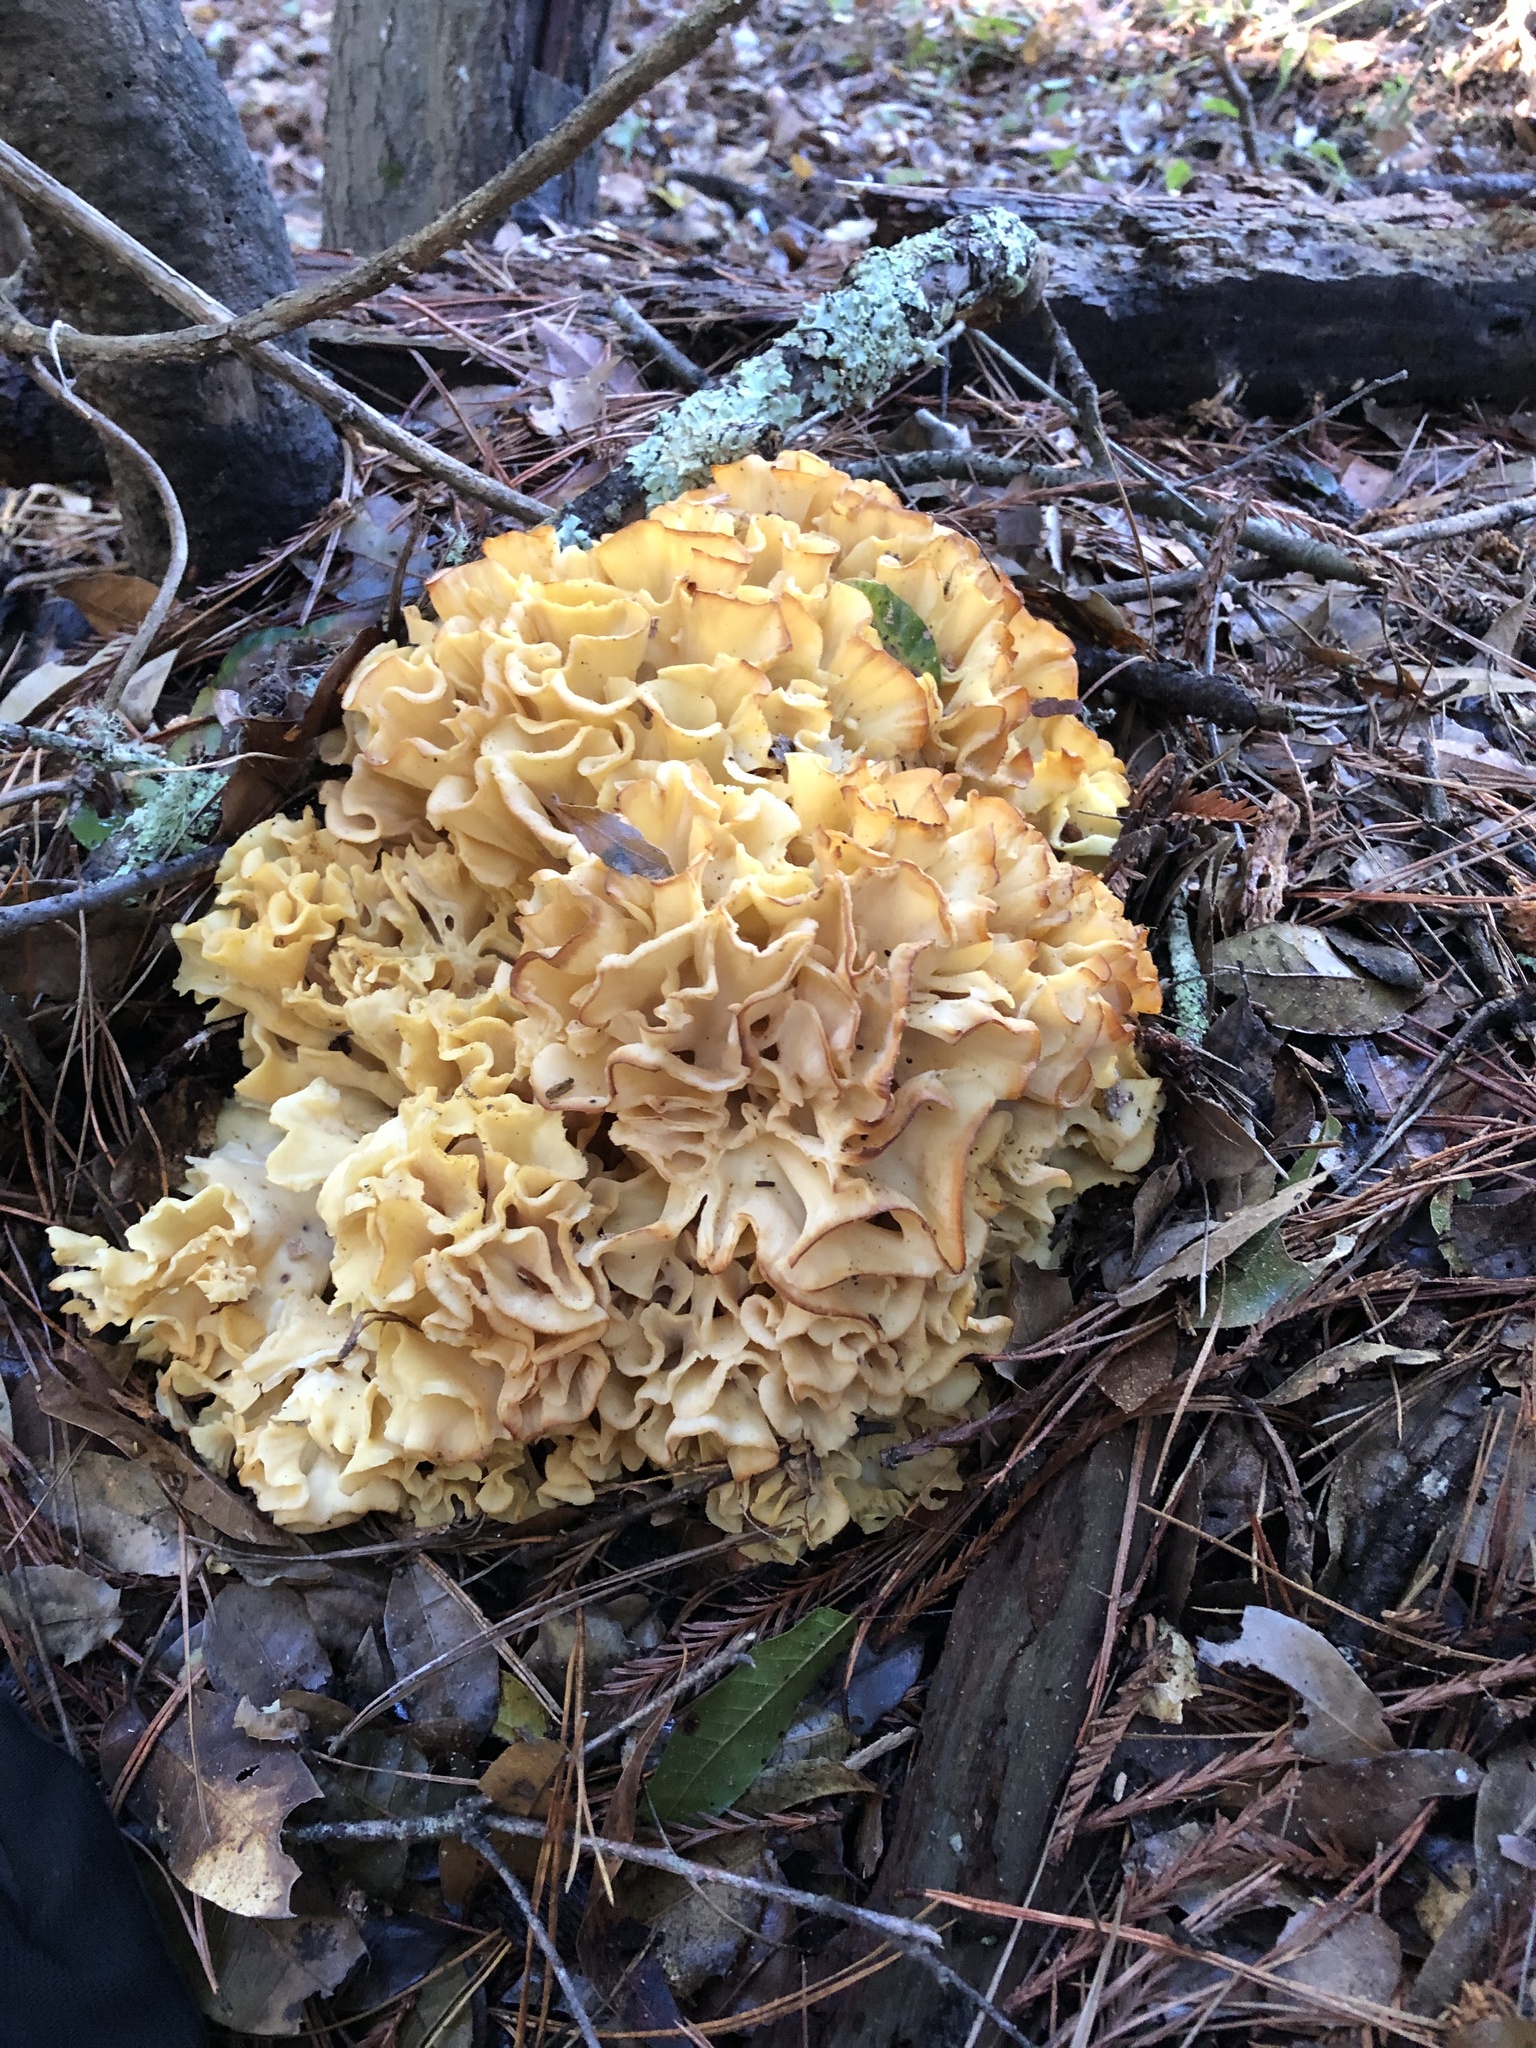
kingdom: Fungi
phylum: Basidiomycota
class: Agaricomycetes
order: Polyporales
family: Sparassidaceae
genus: Sparassis
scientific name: Sparassis radicata
